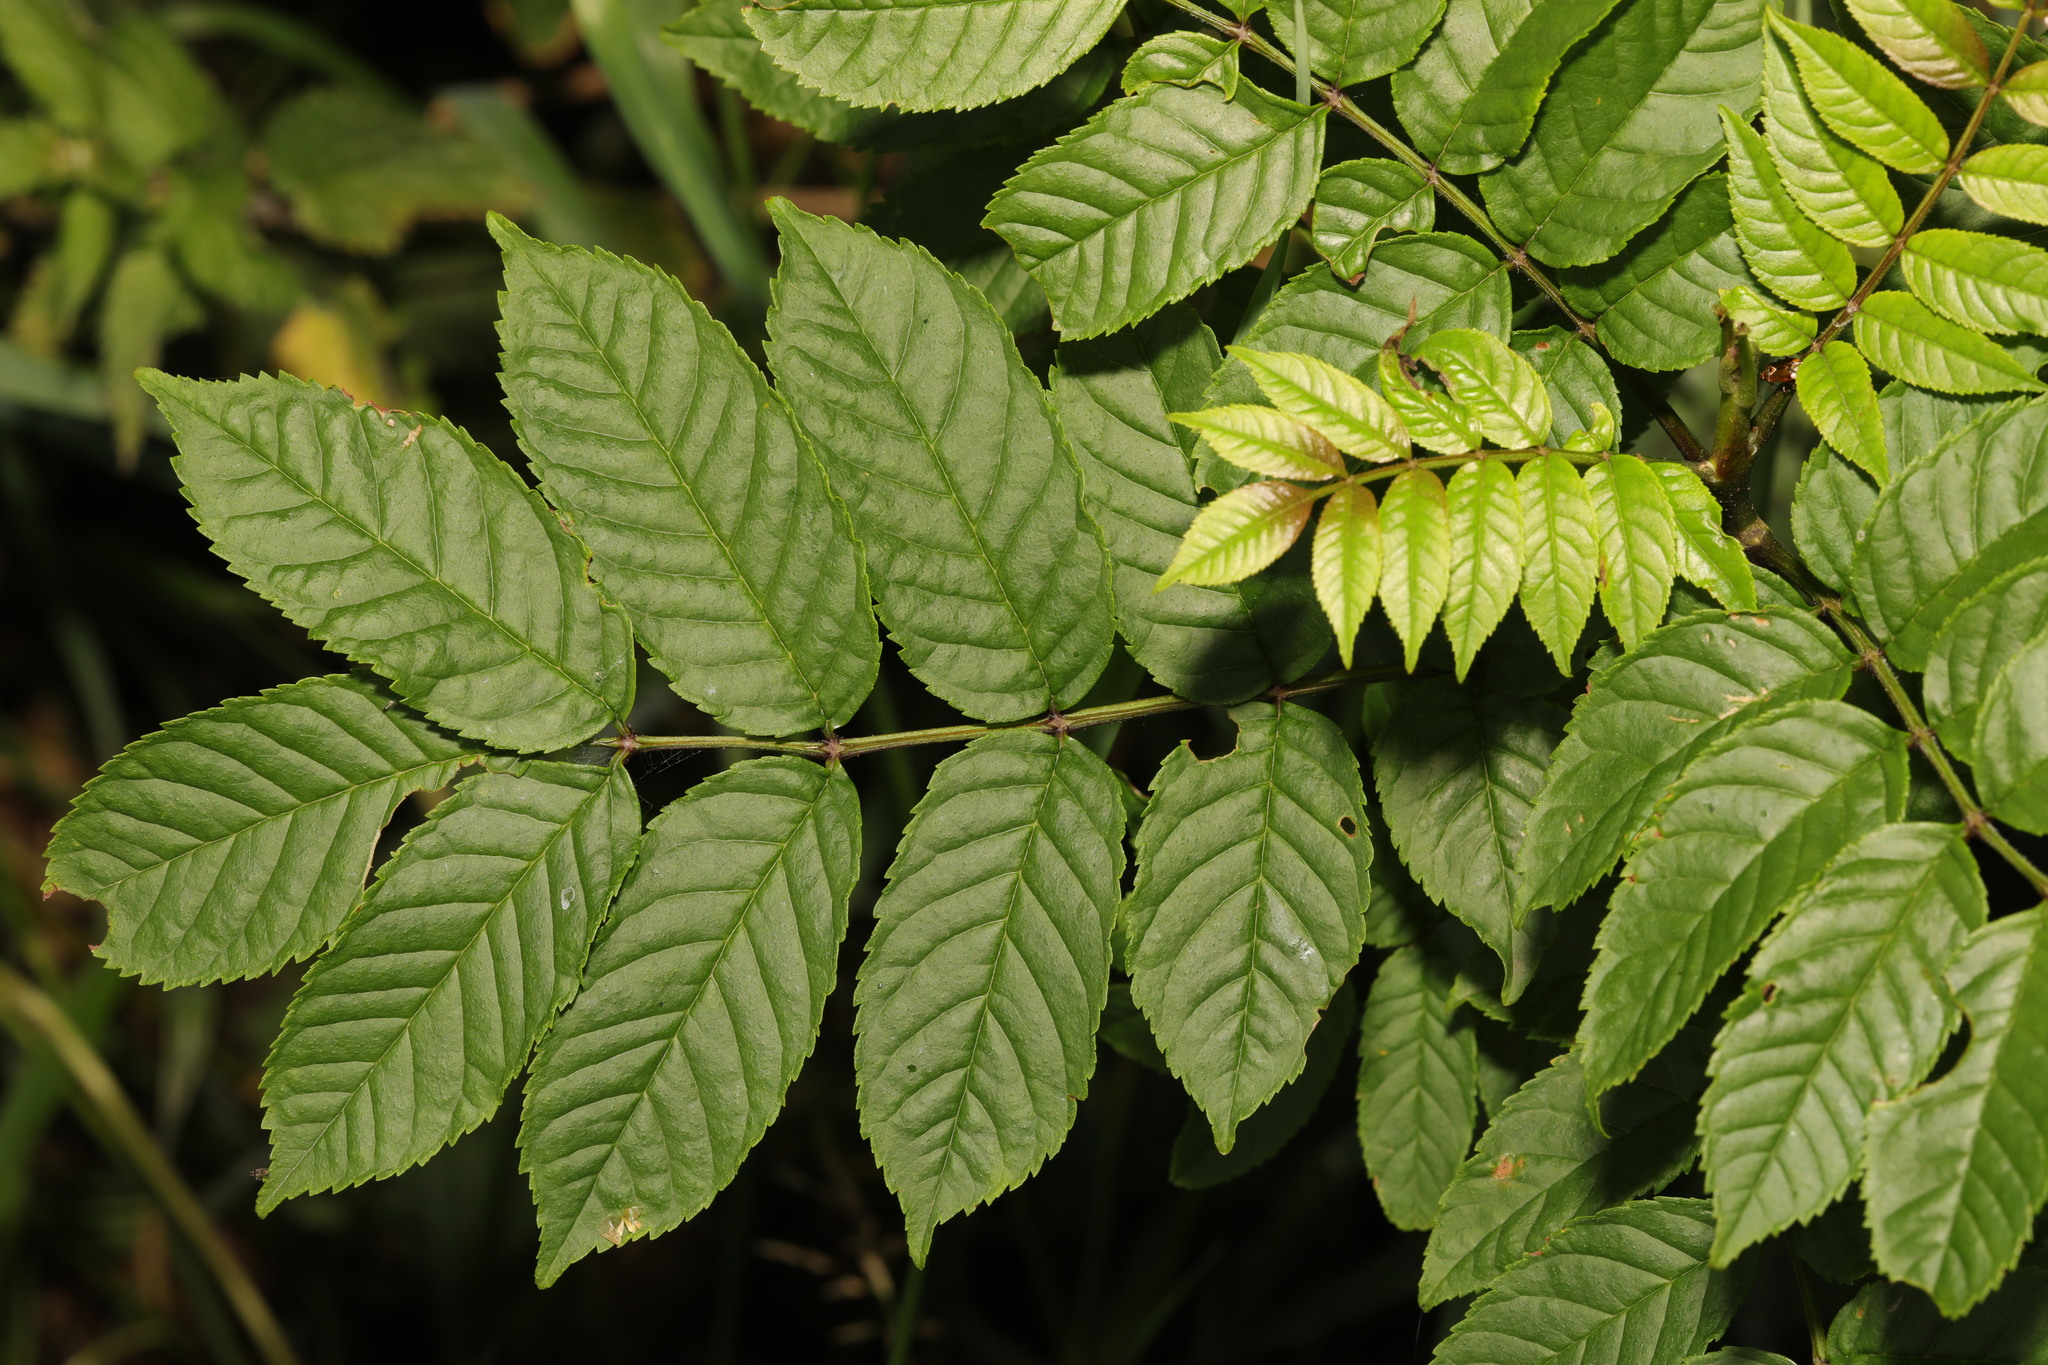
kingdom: Plantae
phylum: Tracheophyta
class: Magnoliopsida
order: Lamiales
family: Oleaceae
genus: Fraxinus
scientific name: Fraxinus excelsior
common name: European ash
